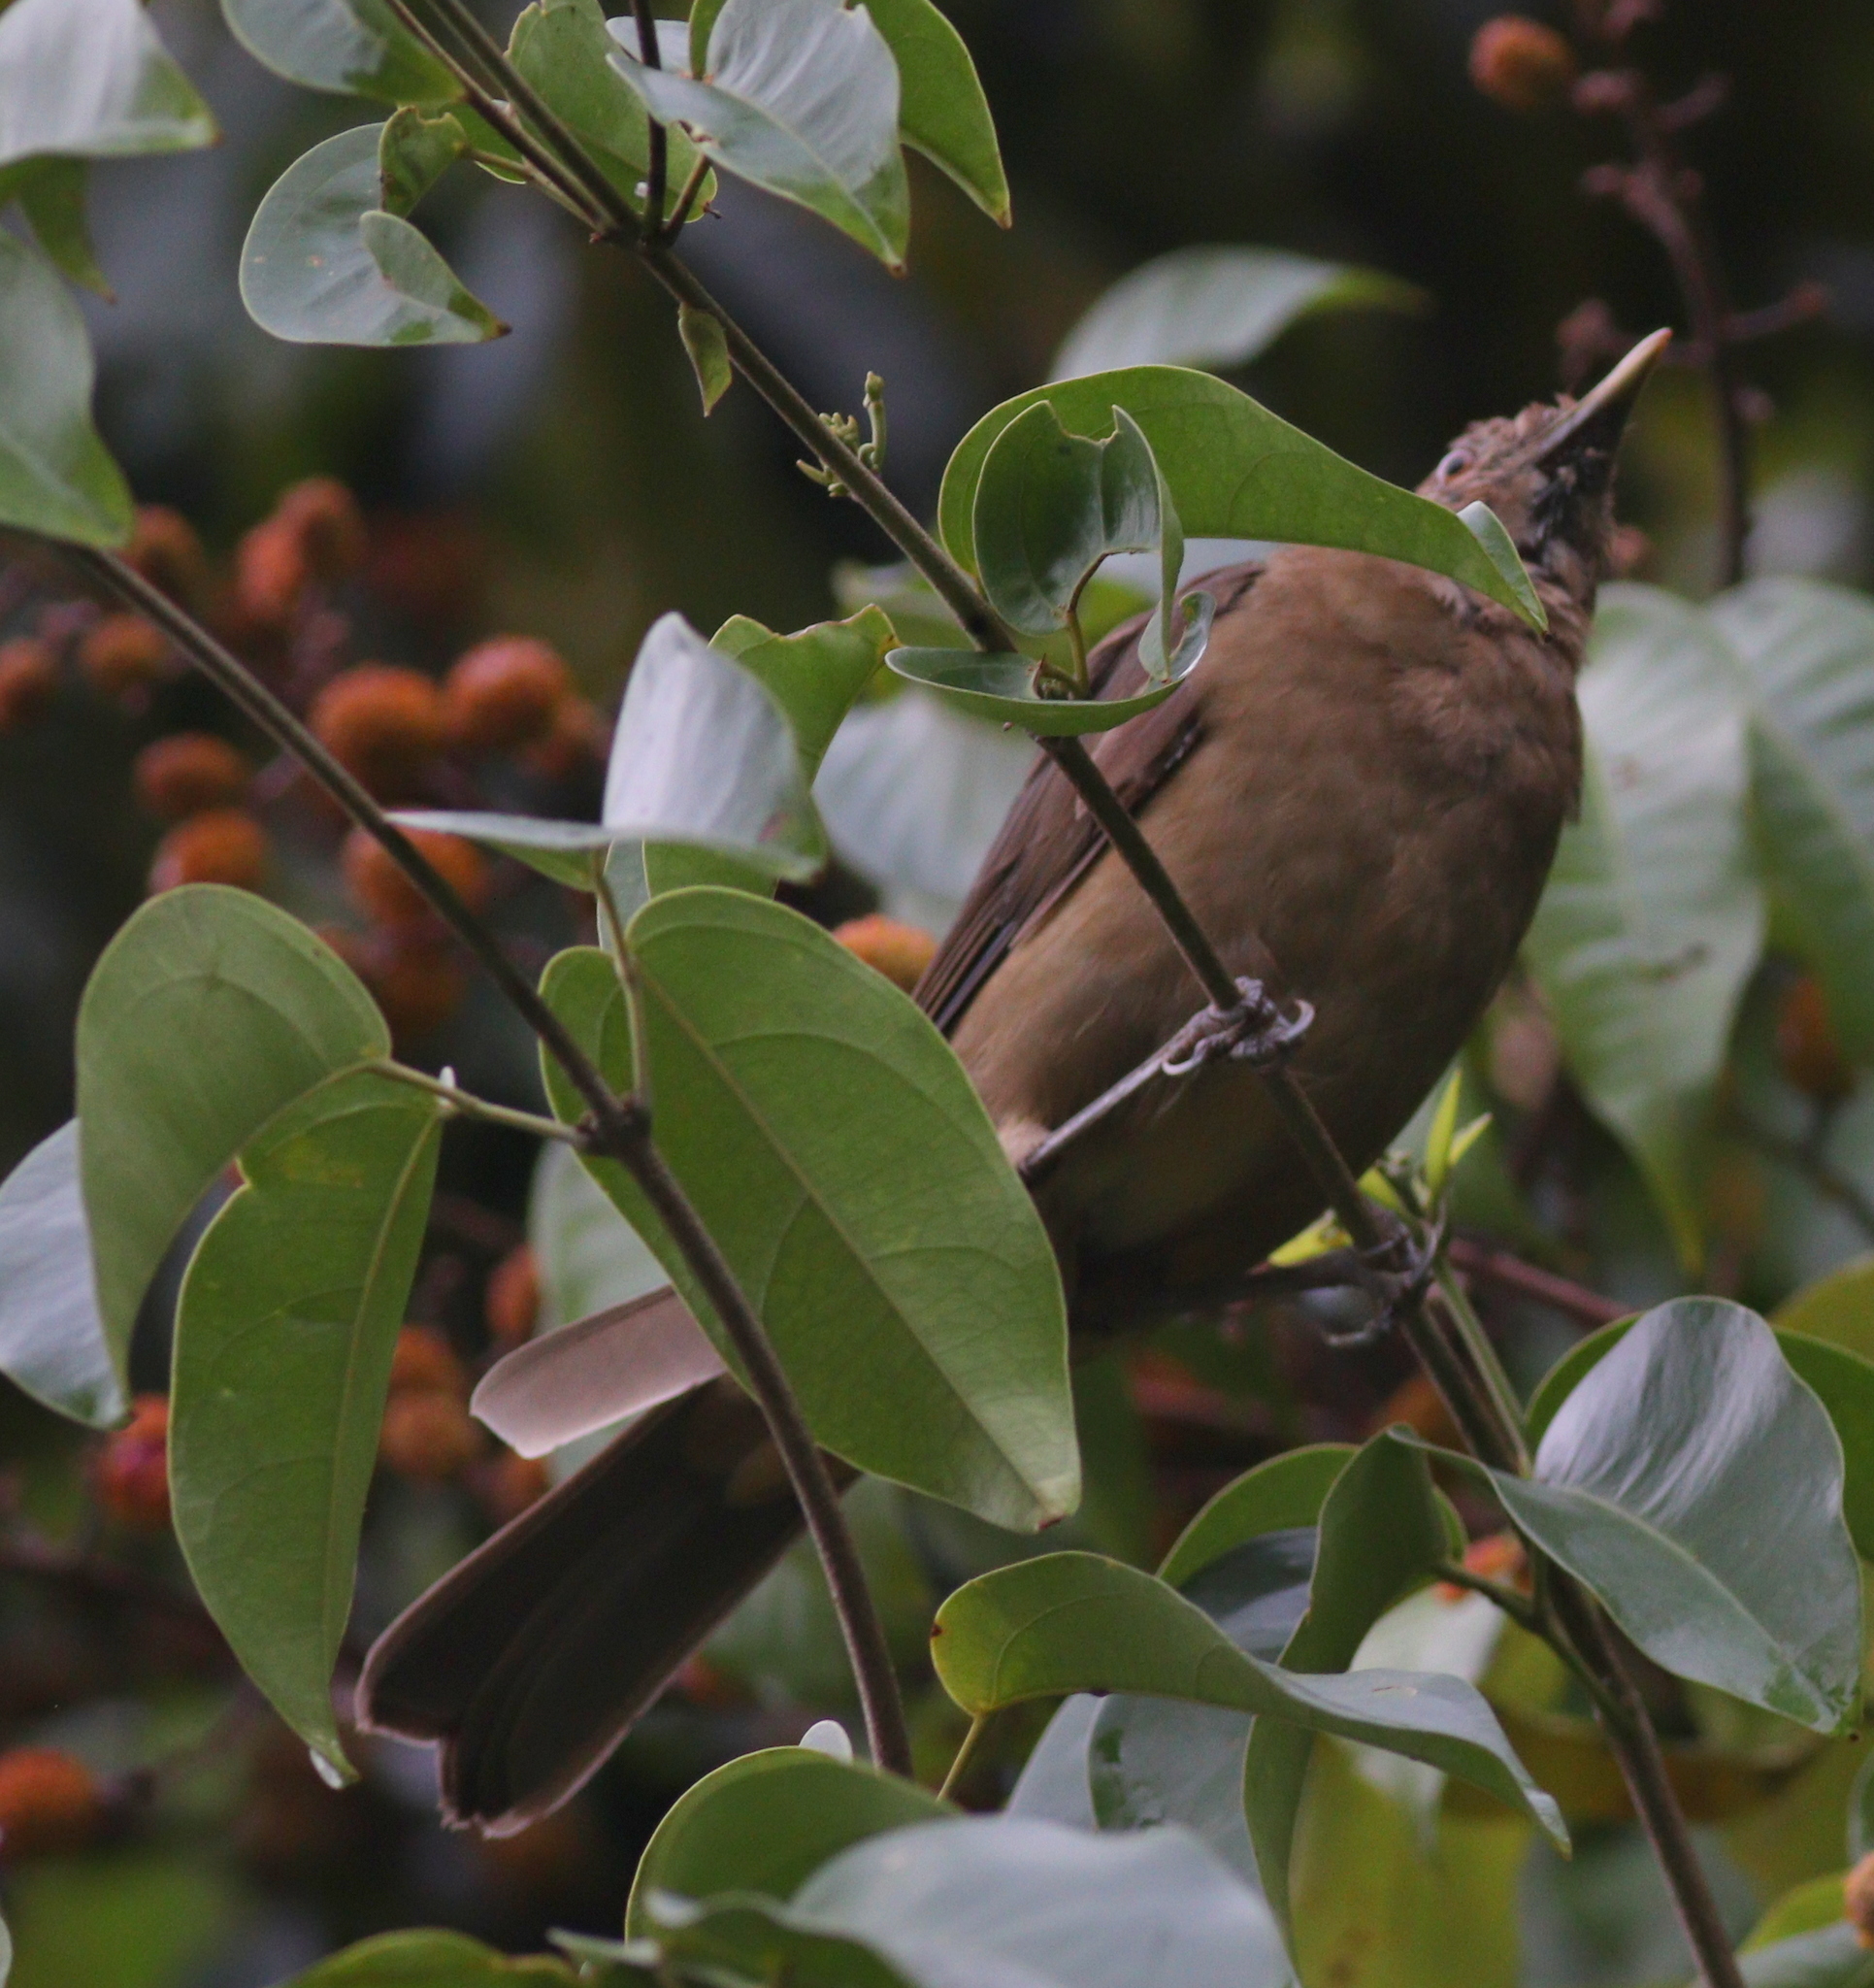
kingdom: Animalia
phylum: Chordata
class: Aves
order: Passeriformes
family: Turdidae
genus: Turdus
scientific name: Turdus grayi
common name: Clay-colored thrush
